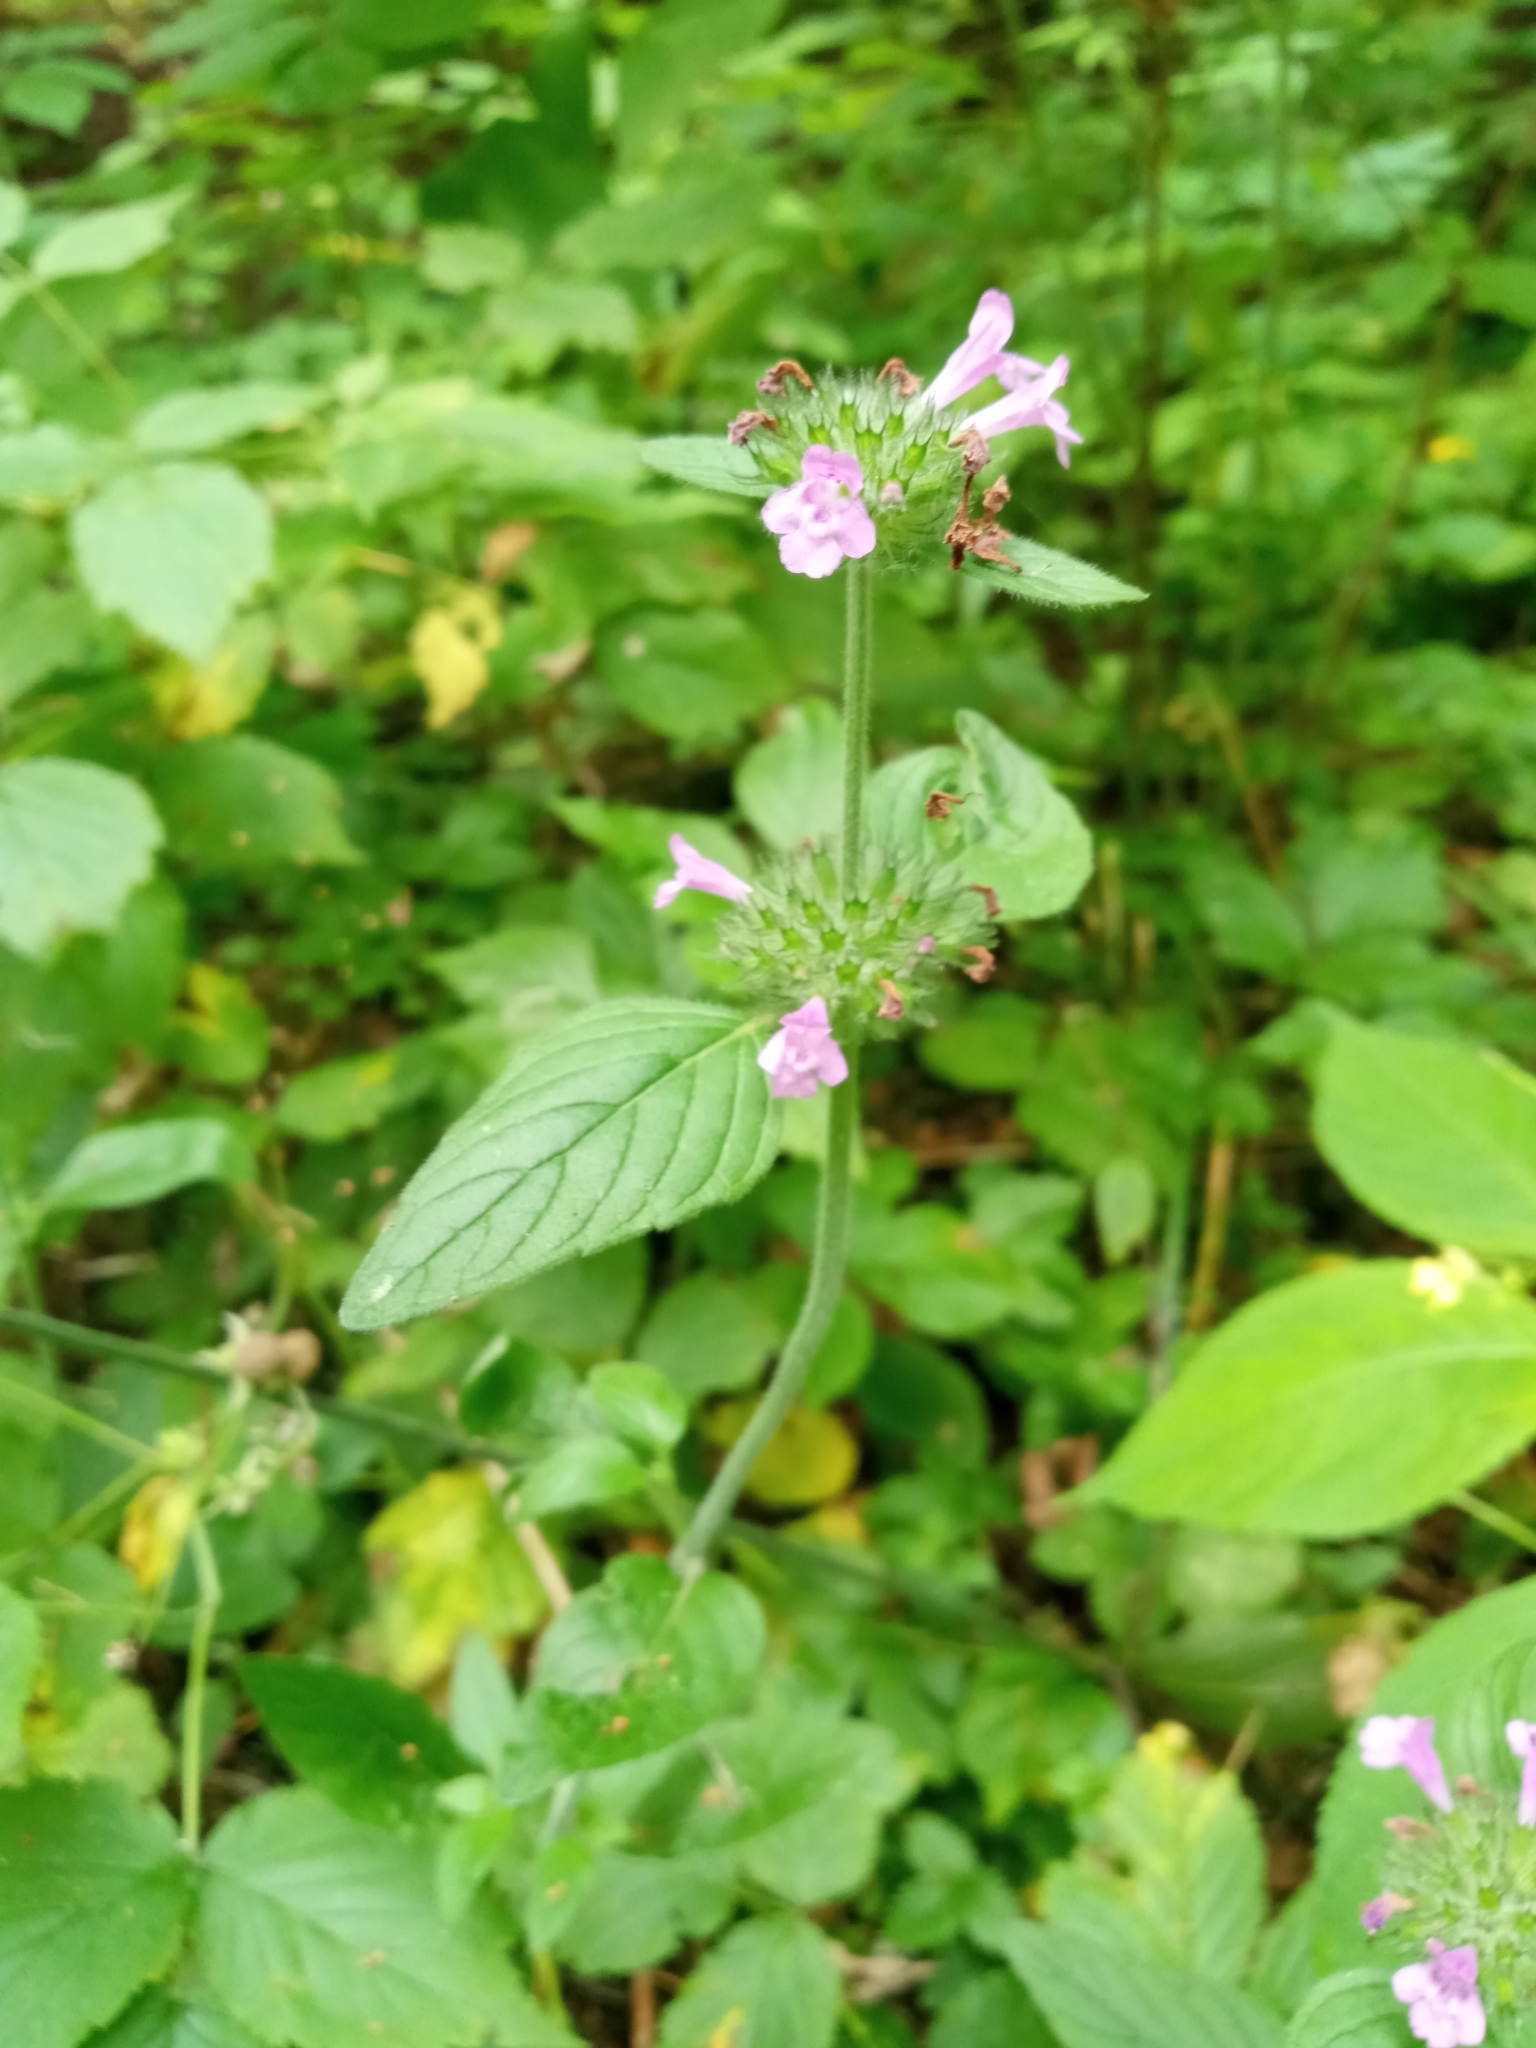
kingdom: Plantae
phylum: Tracheophyta
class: Magnoliopsida
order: Lamiales
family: Lamiaceae
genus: Clinopodium
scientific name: Clinopodium vulgare
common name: Wild basil
